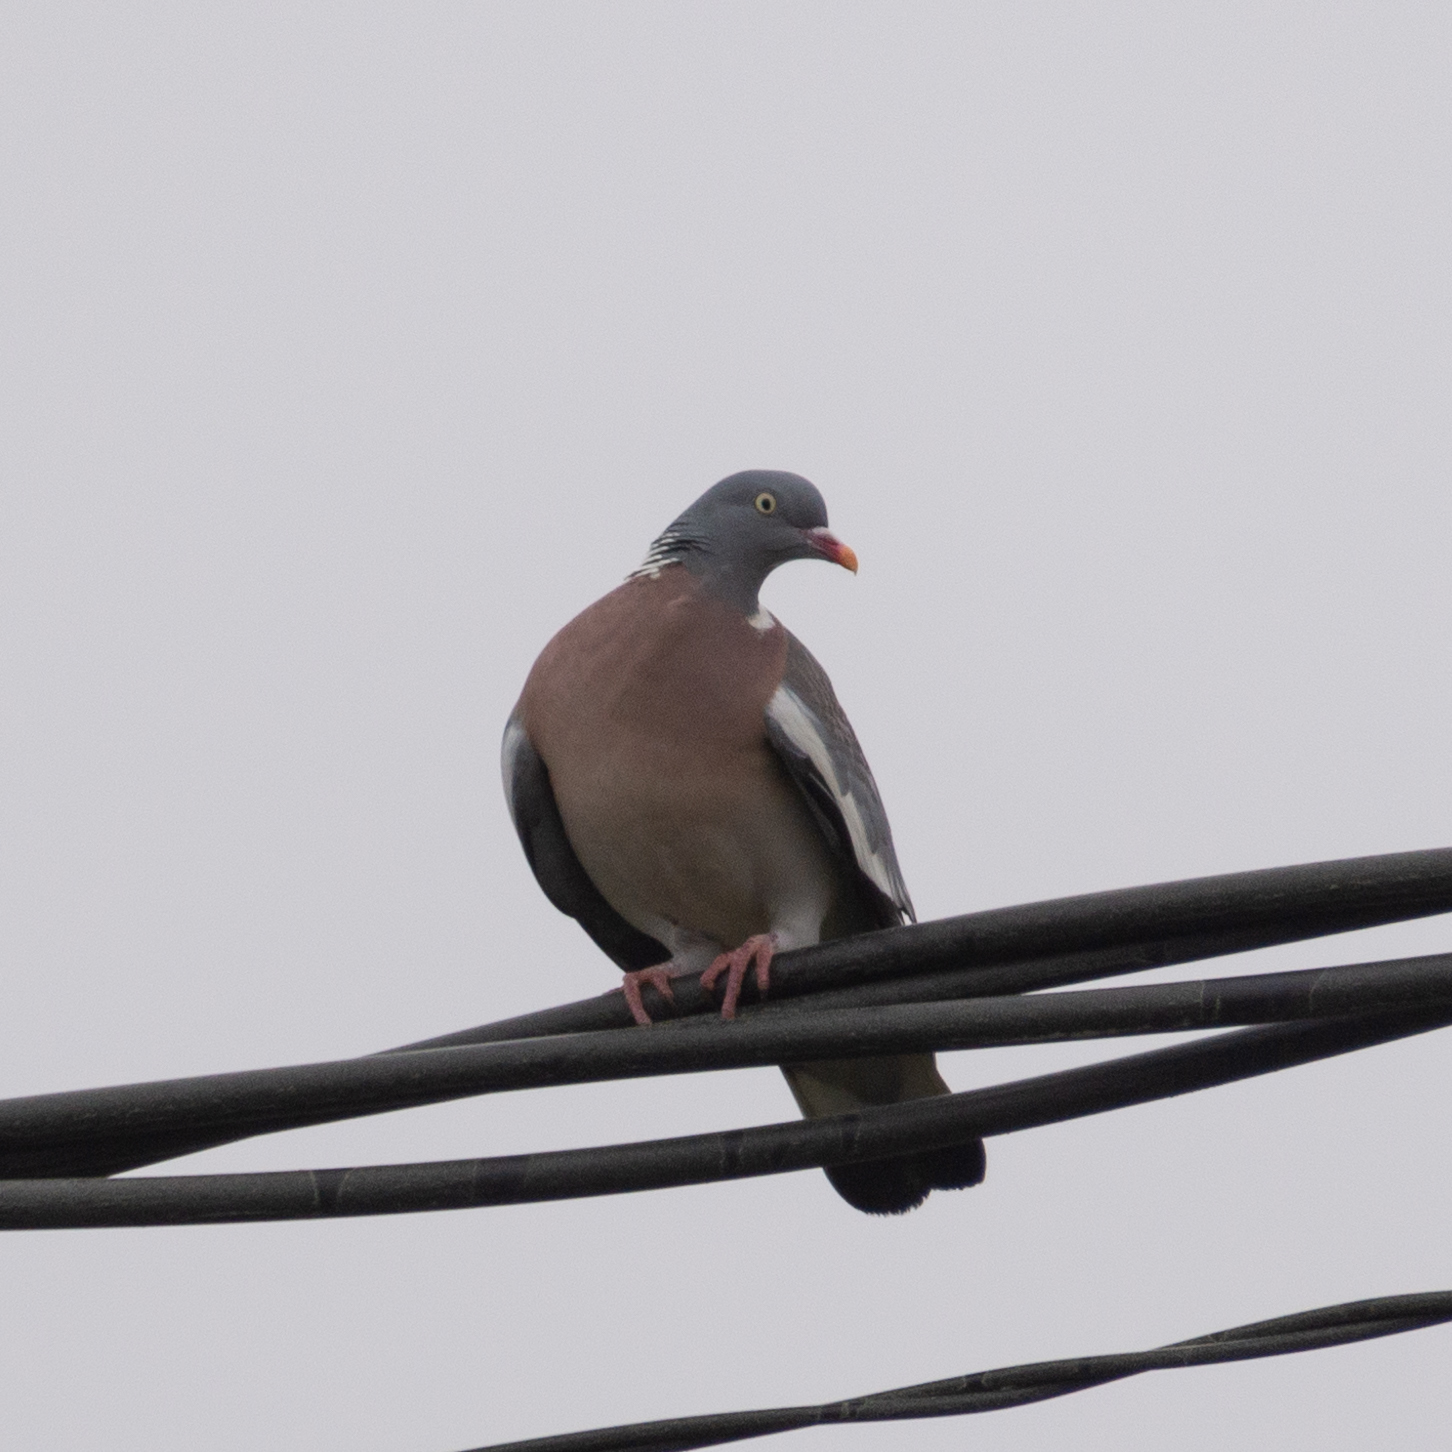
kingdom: Animalia
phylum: Chordata
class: Aves
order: Columbiformes
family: Columbidae
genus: Columba
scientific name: Columba palumbus
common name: Common wood pigeon
